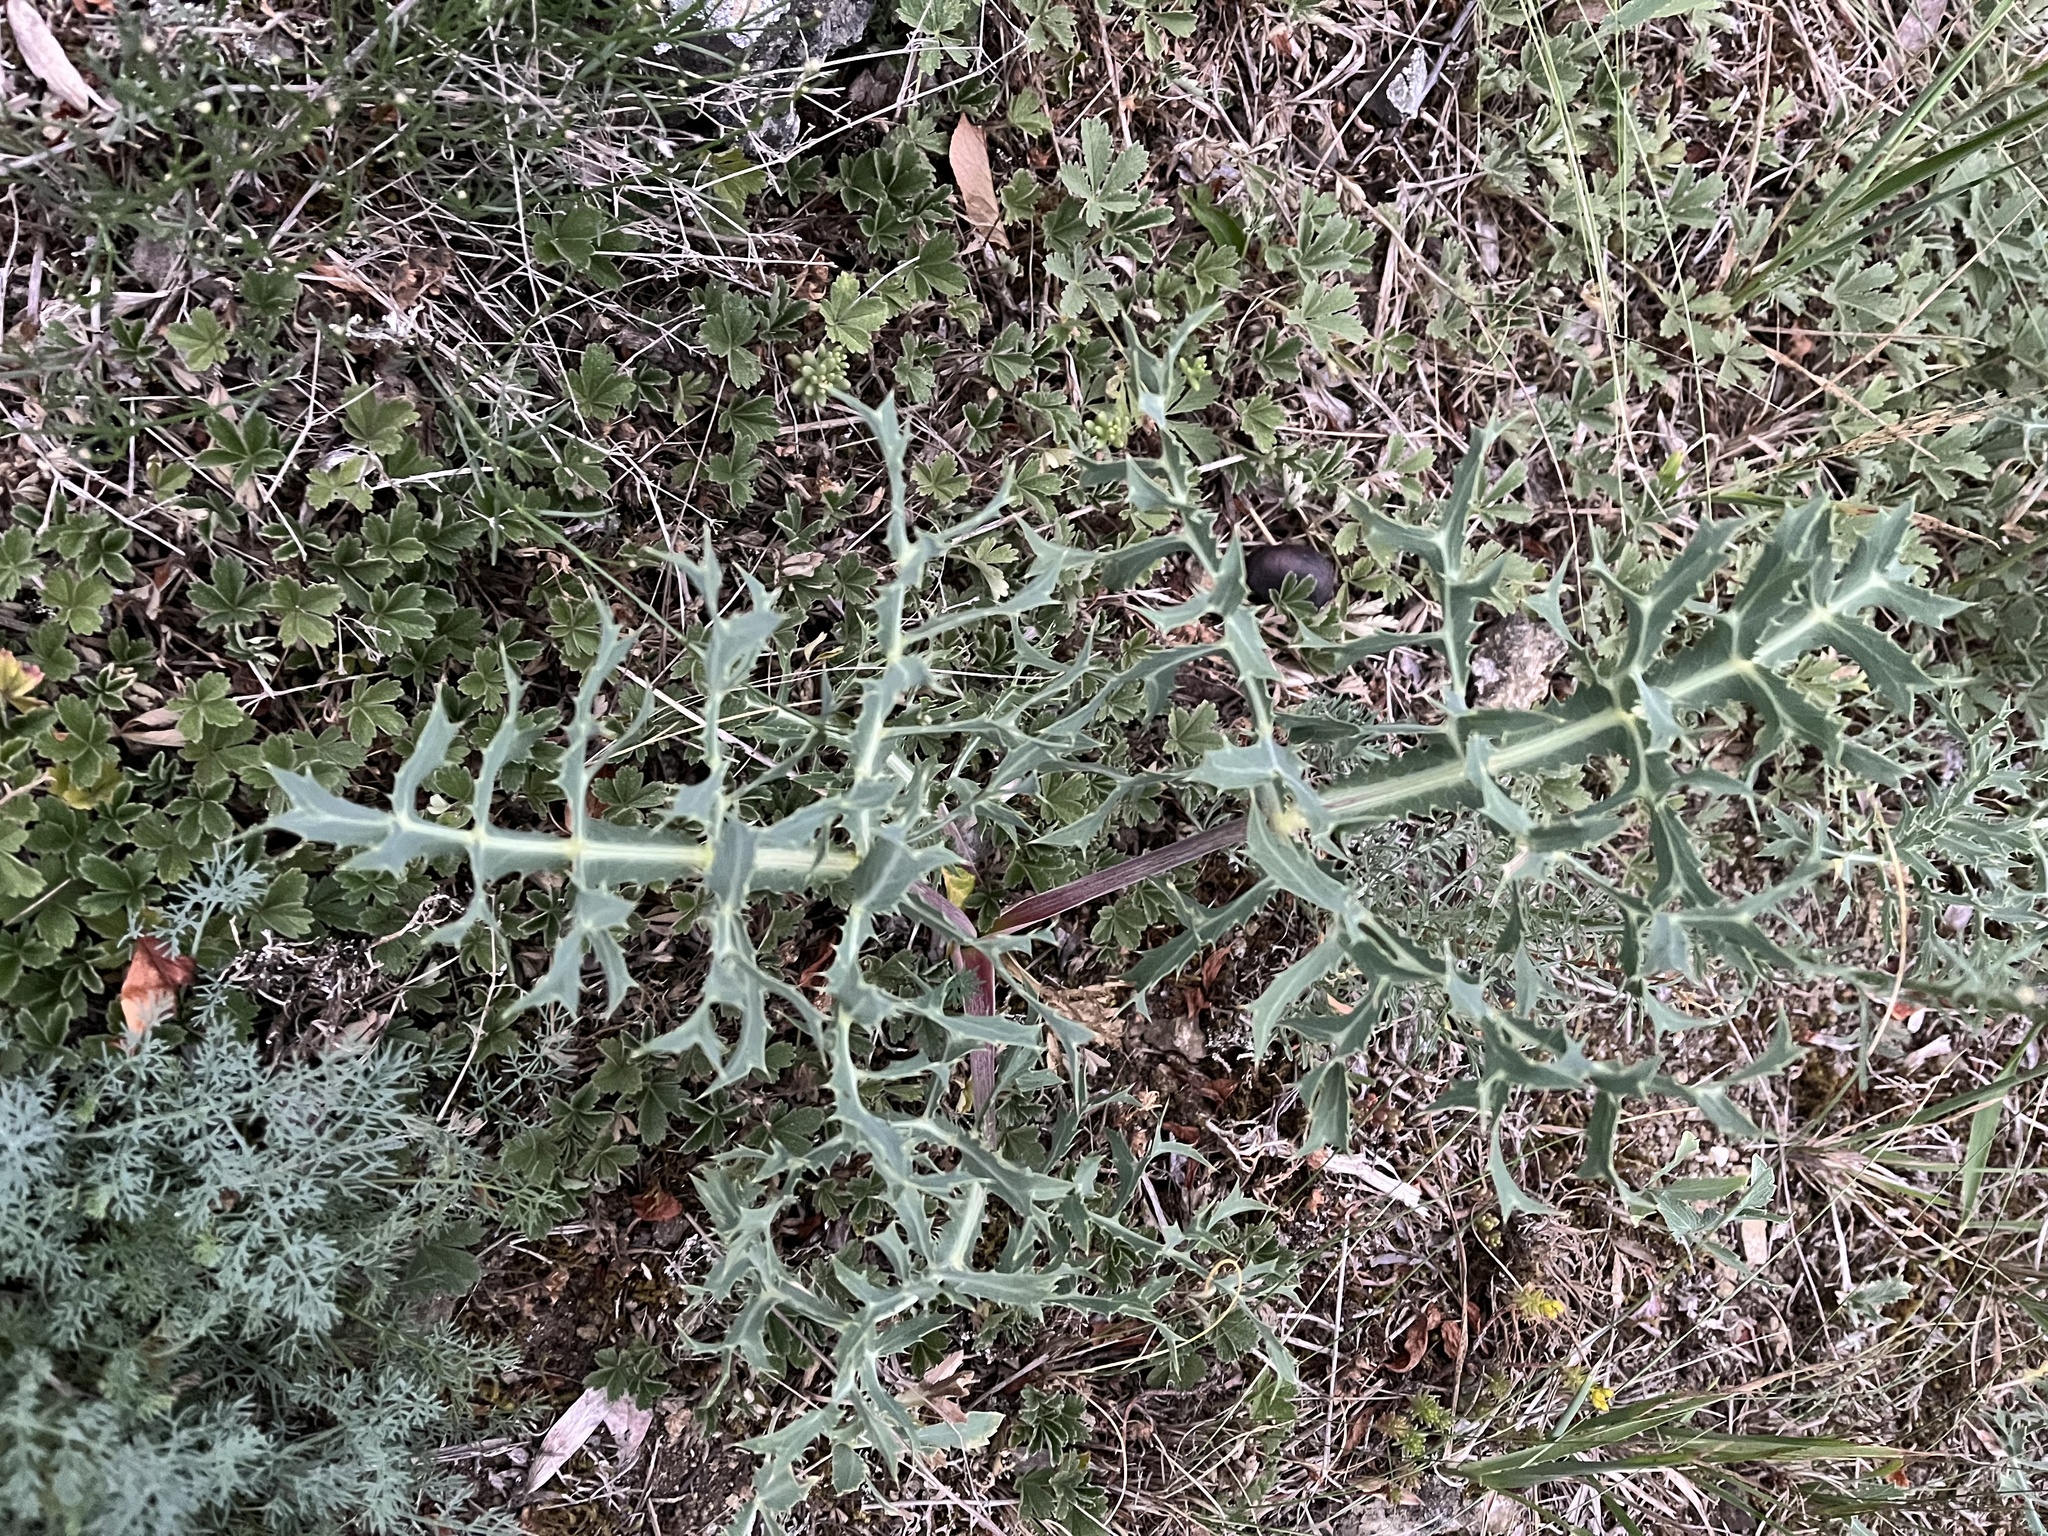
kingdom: Plantae
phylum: Tracheophyta
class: Magnoliopsida
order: Apiales
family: Apiaceae
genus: Eryngium
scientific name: Eryngium campestre
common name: Field eryngo
